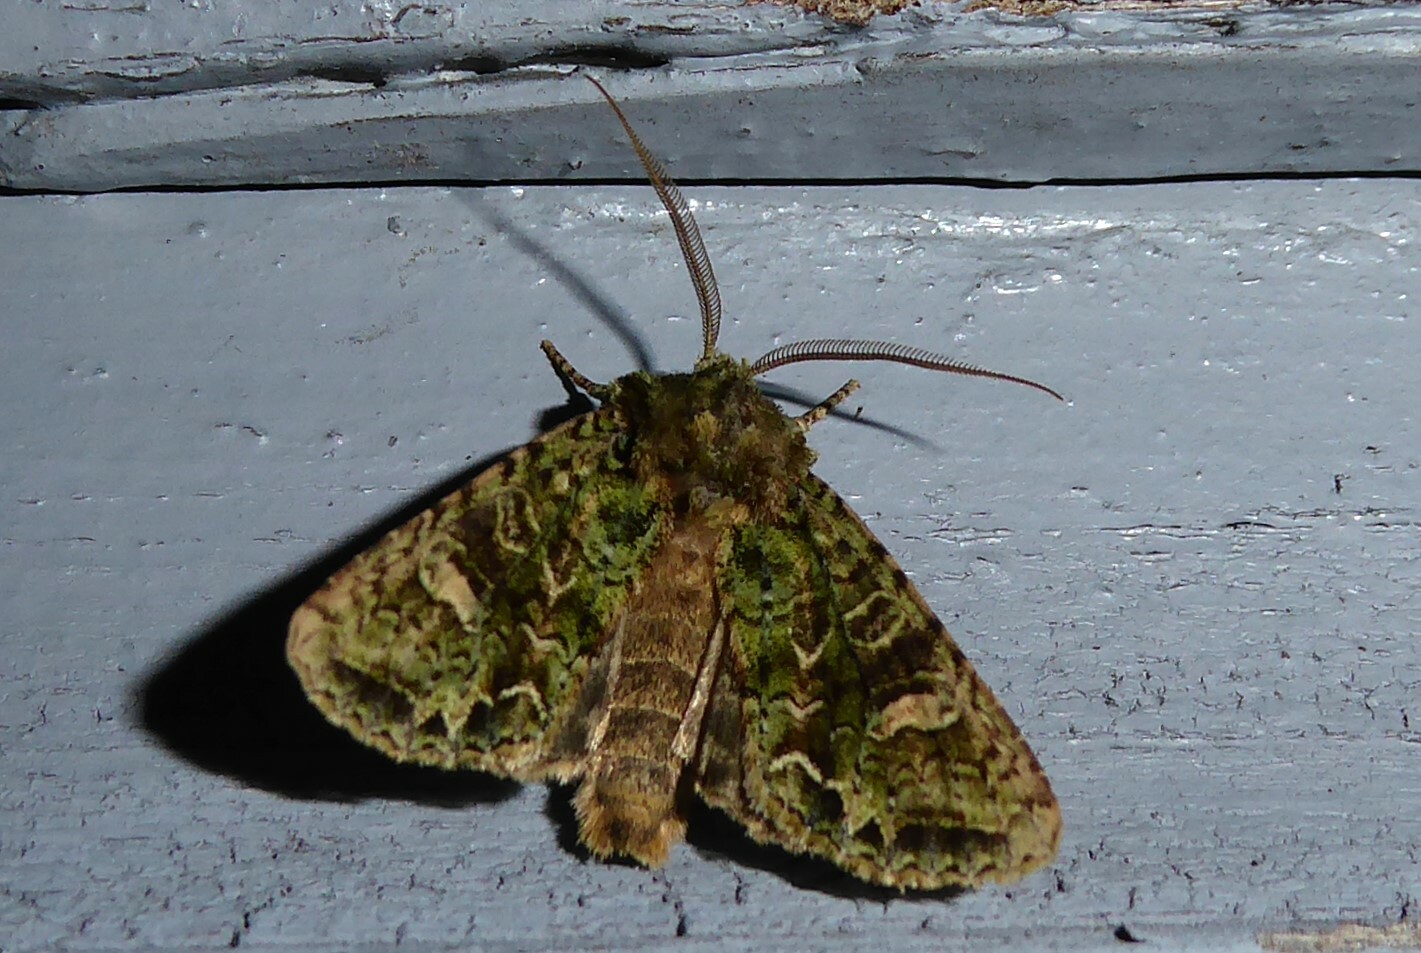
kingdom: Animalia
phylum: Arthropoda
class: Insecta
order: Lepidoptera
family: Noctuidae
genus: Ichneutica
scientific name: Ichneutica
